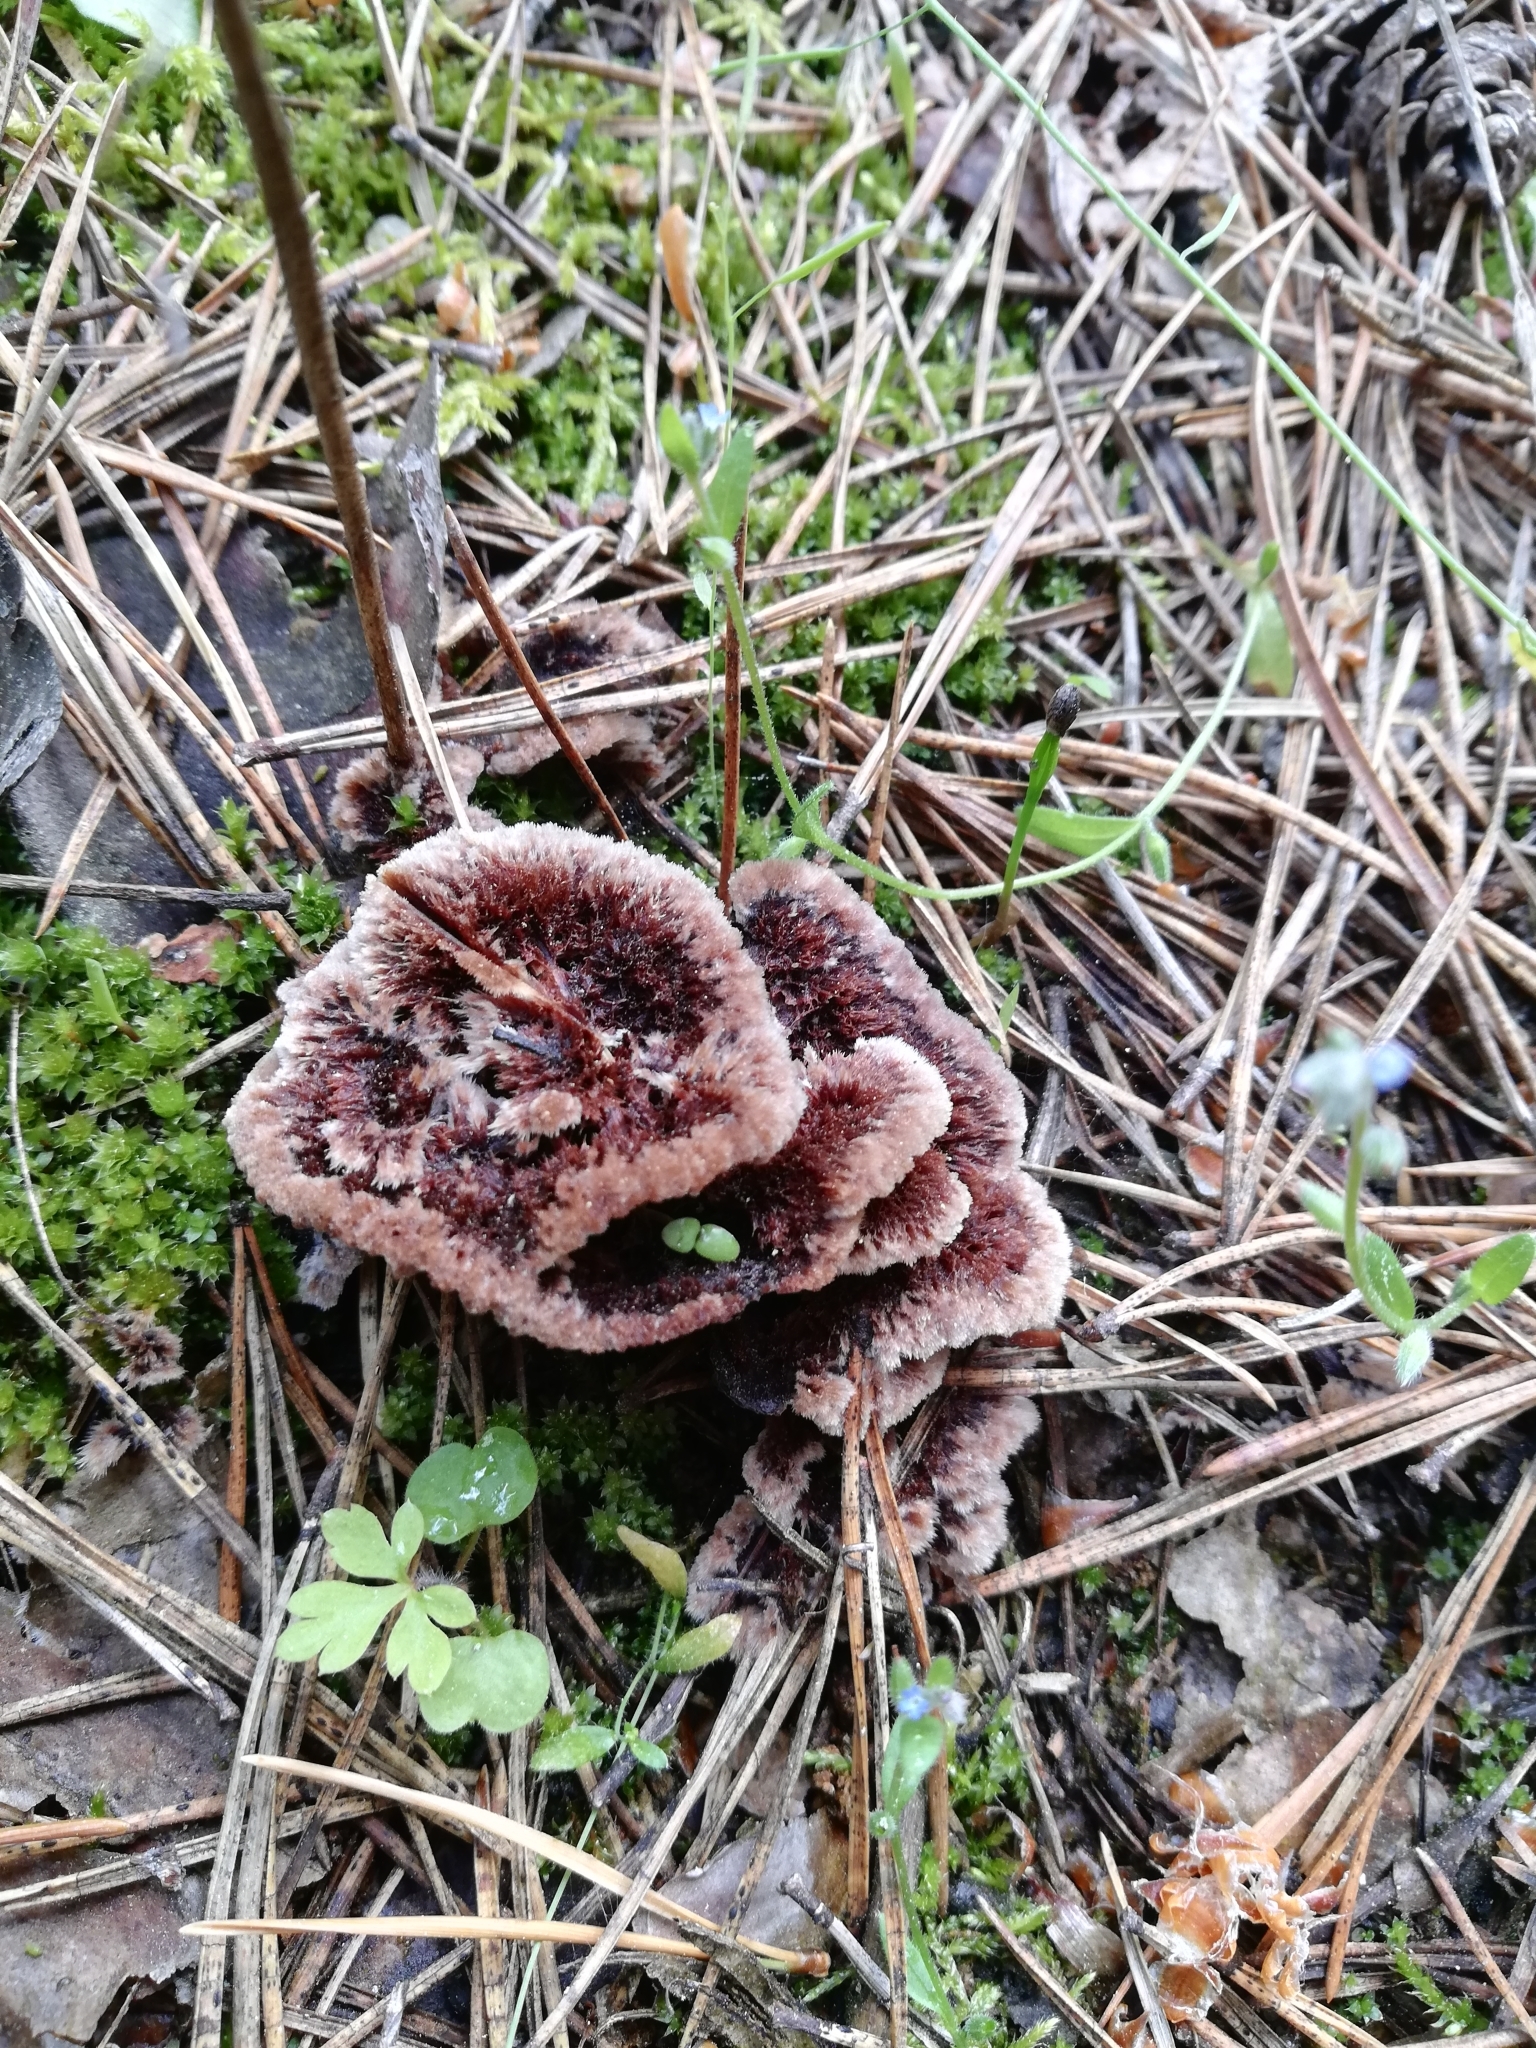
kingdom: Fungi
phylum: Basidiomycota
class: Agaricomycetes
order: Thelephorales
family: Thelephoraceae
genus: Thelephora
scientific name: Thelephora terrestris
